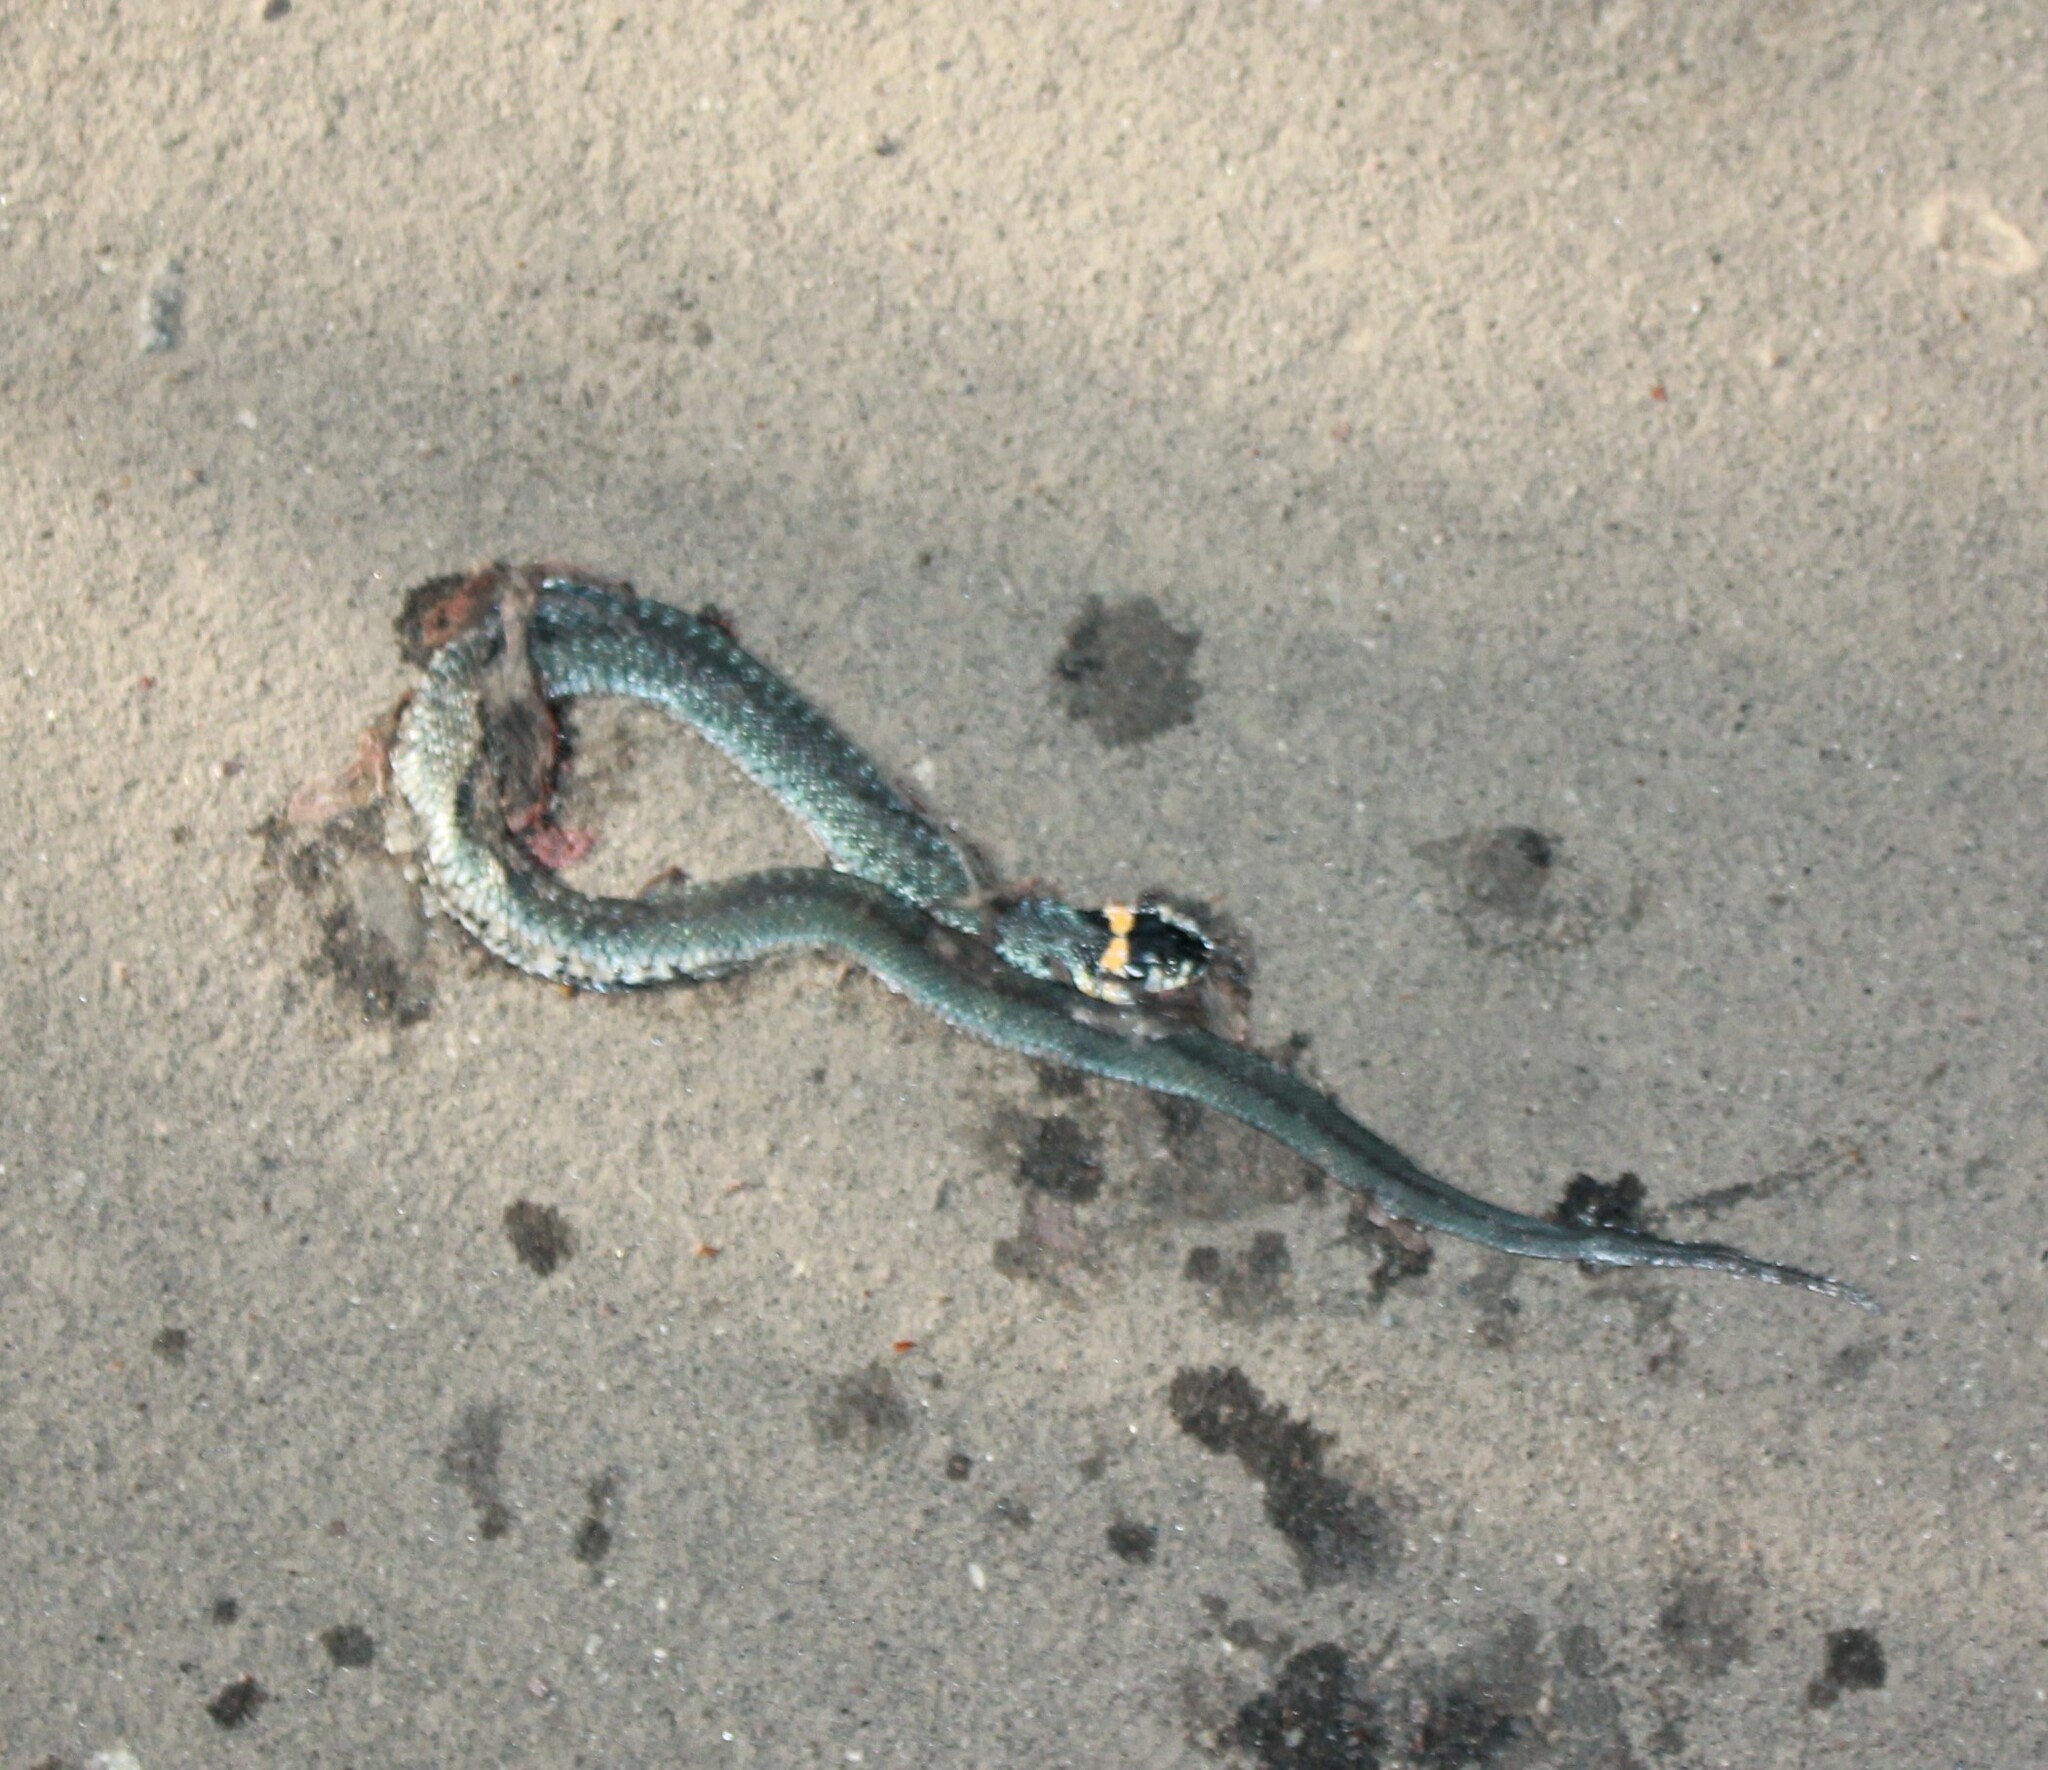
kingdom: Animalia
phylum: Chordata
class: Squamata
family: Colubridae
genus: Natrix
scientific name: Natrix natrix
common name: Grass snake
